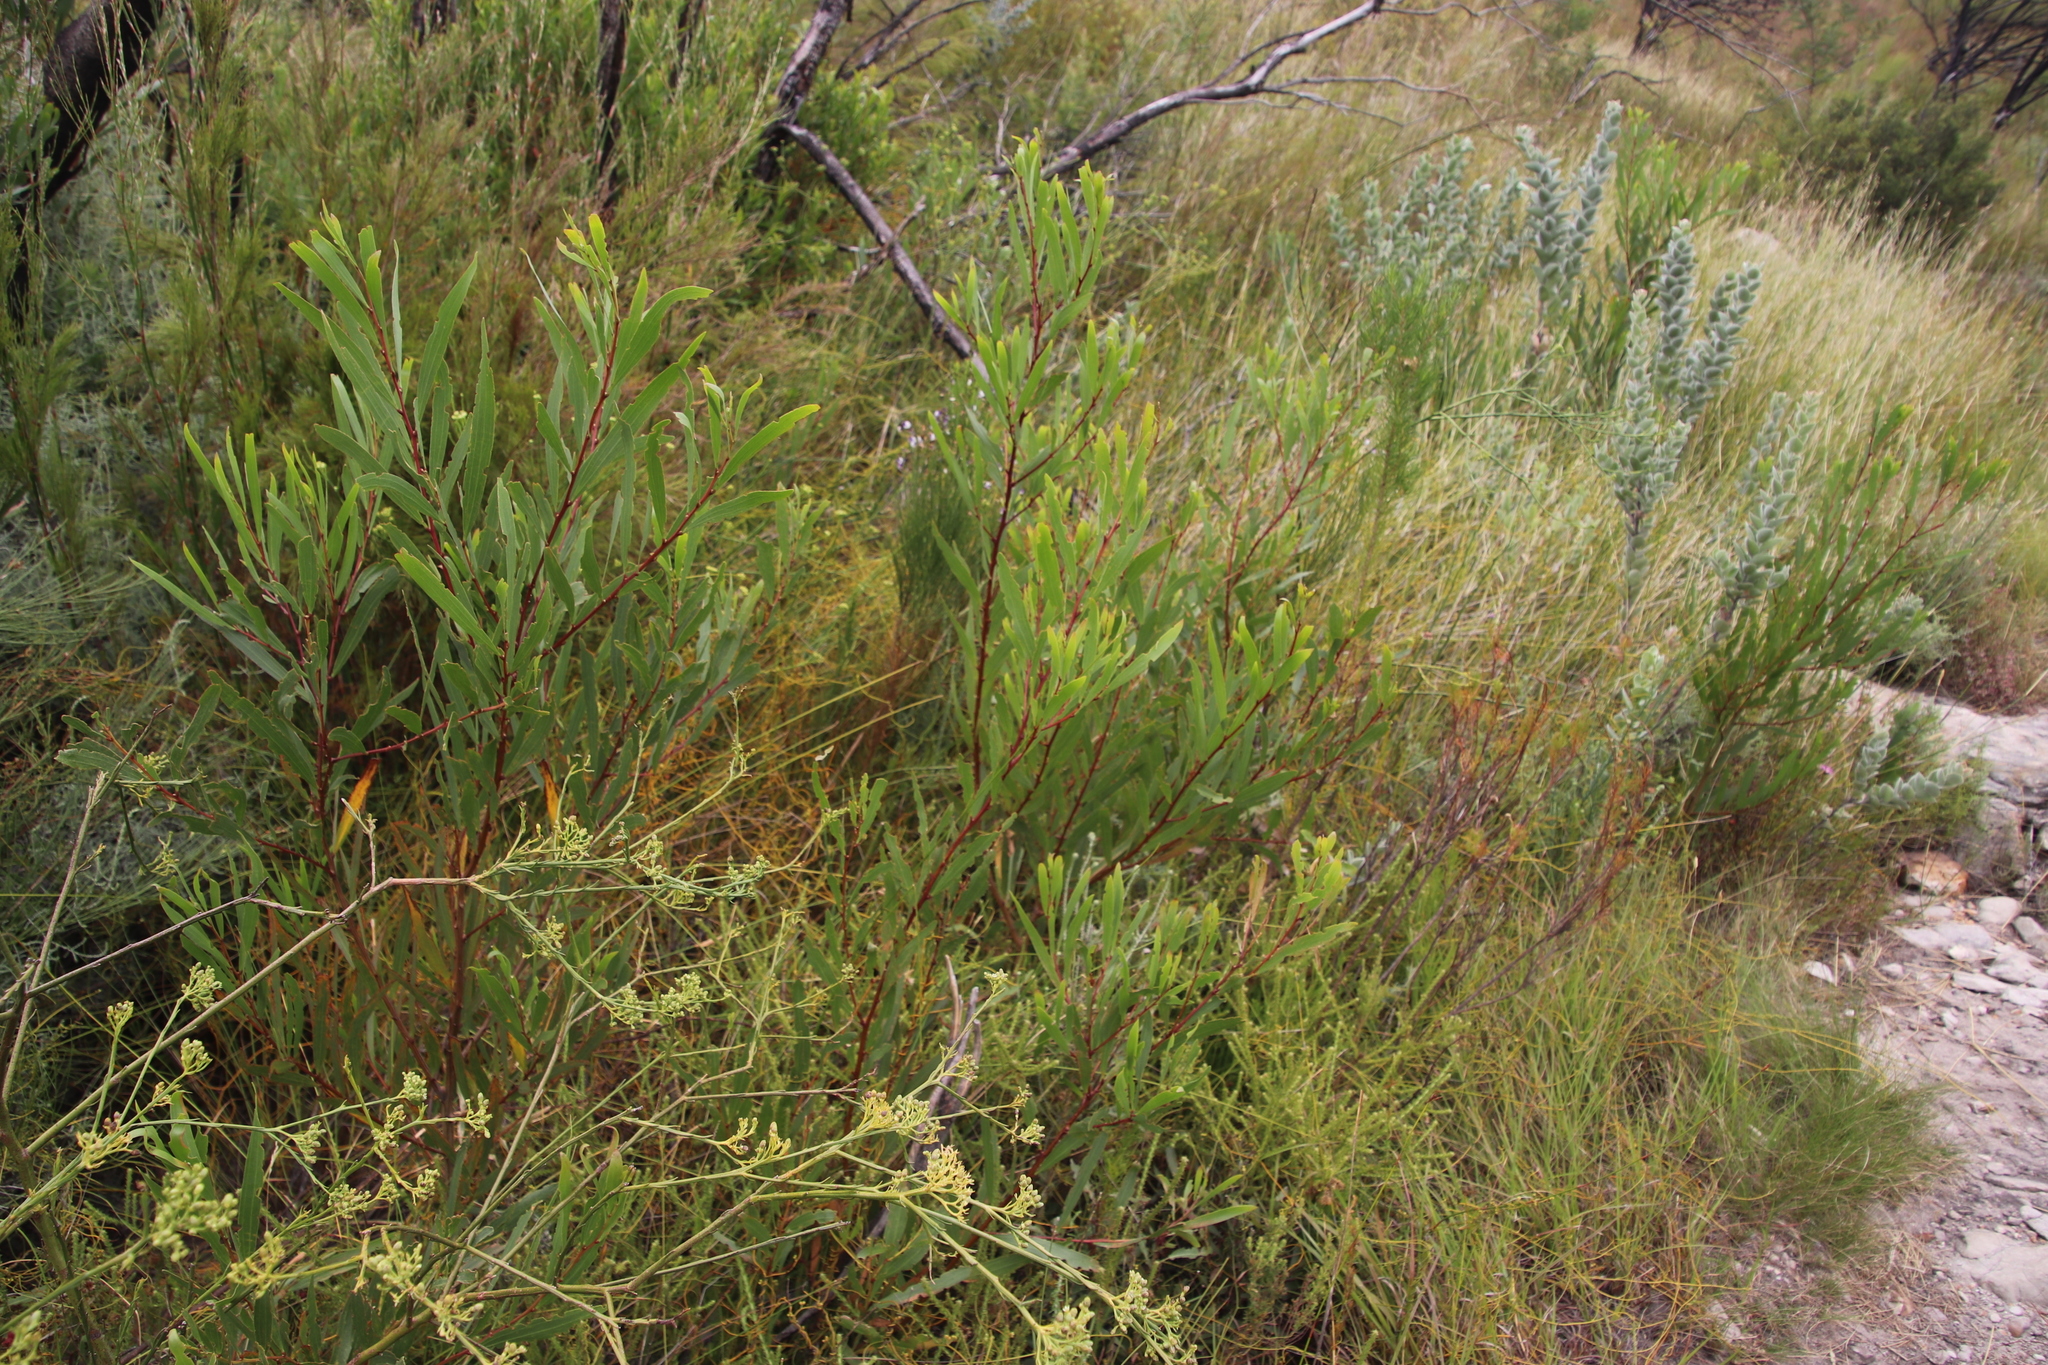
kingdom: Plantae
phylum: Tracheophyta
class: Magnoliopsida
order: Fabales
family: Fabaceae
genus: Acacia
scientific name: Acacia longifolia
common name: Sydney golden wattle
